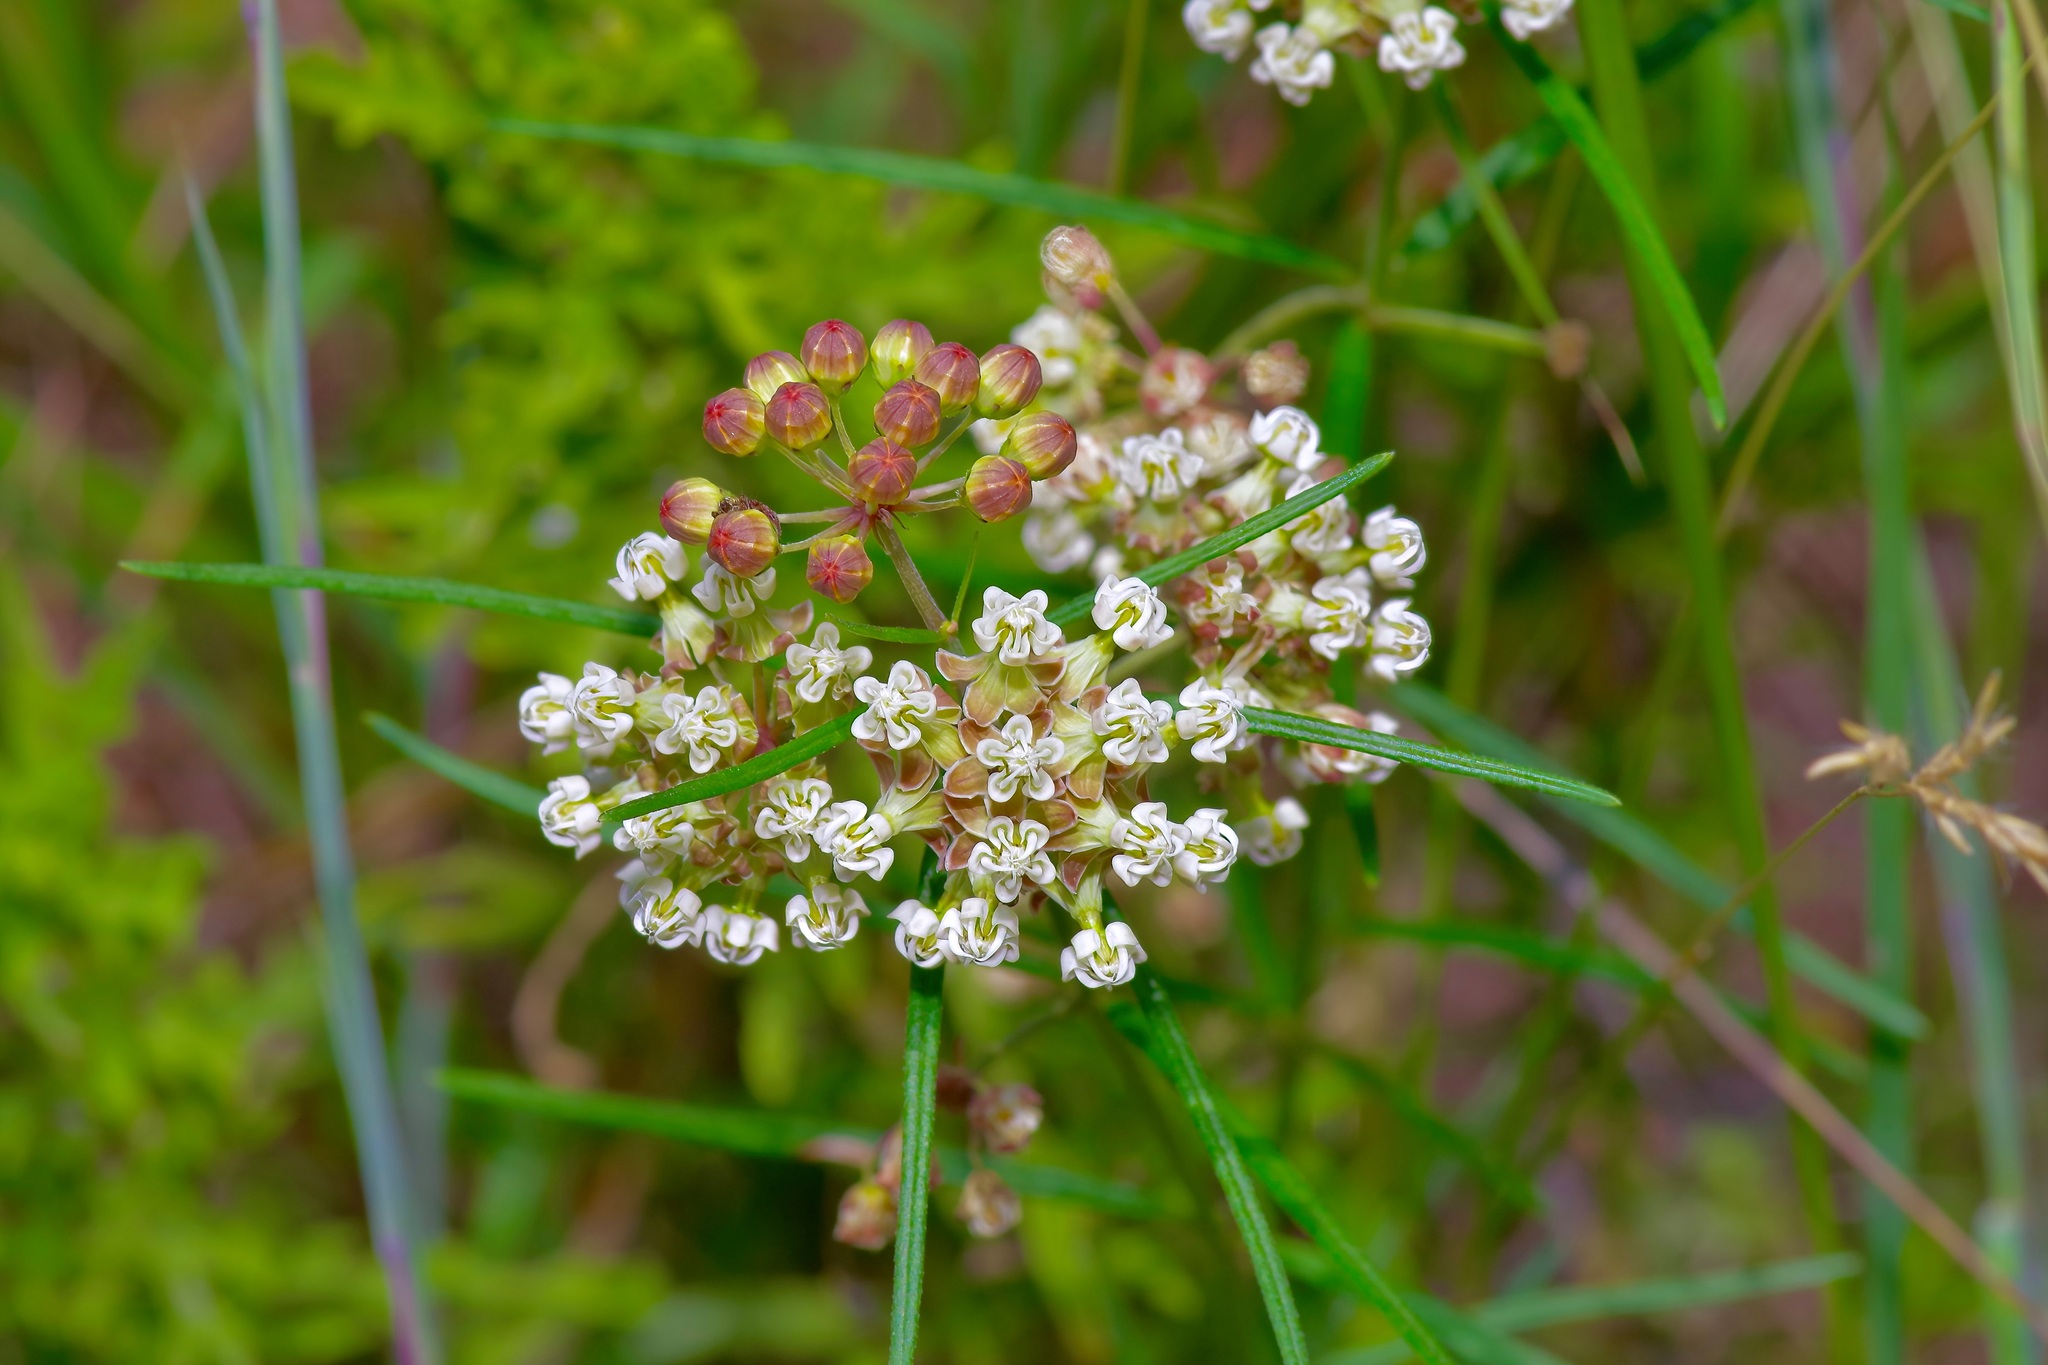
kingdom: Plantae
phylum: Tracheophyta
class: Magnoliopsida
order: Gentianales
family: Apocynaceae
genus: Asclepias
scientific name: Asclepias linearis
